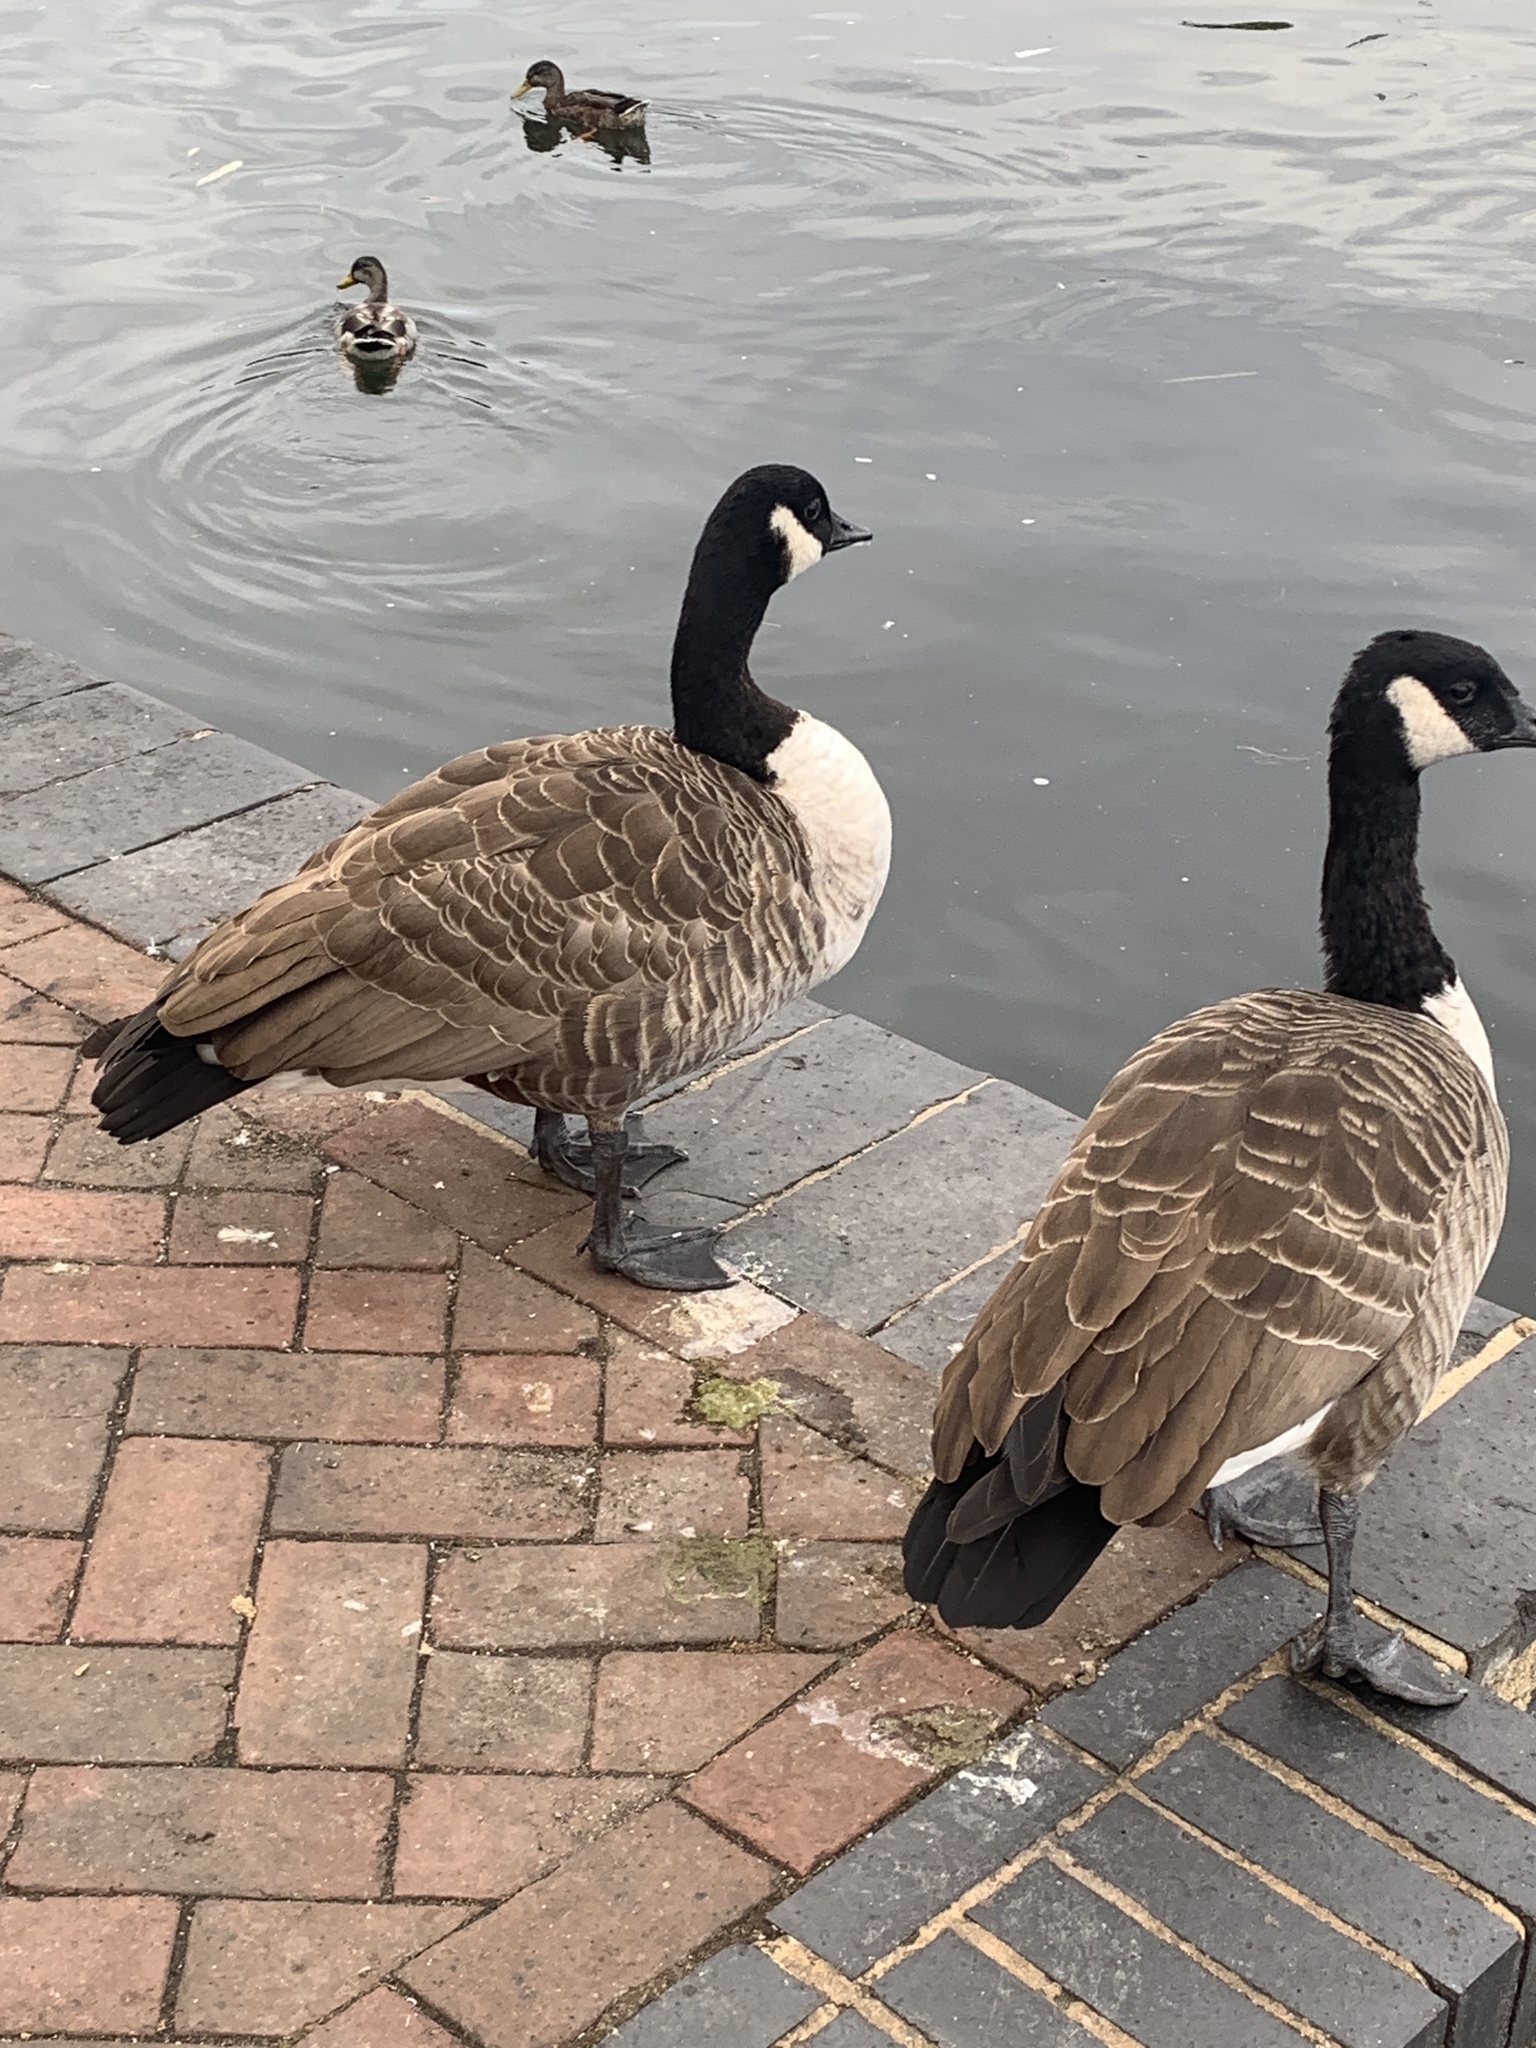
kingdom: Animalia
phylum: Chordata
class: Aves
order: Anseriformes
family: Anatidae
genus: Branta
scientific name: Branta canadensis
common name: Canada goose
